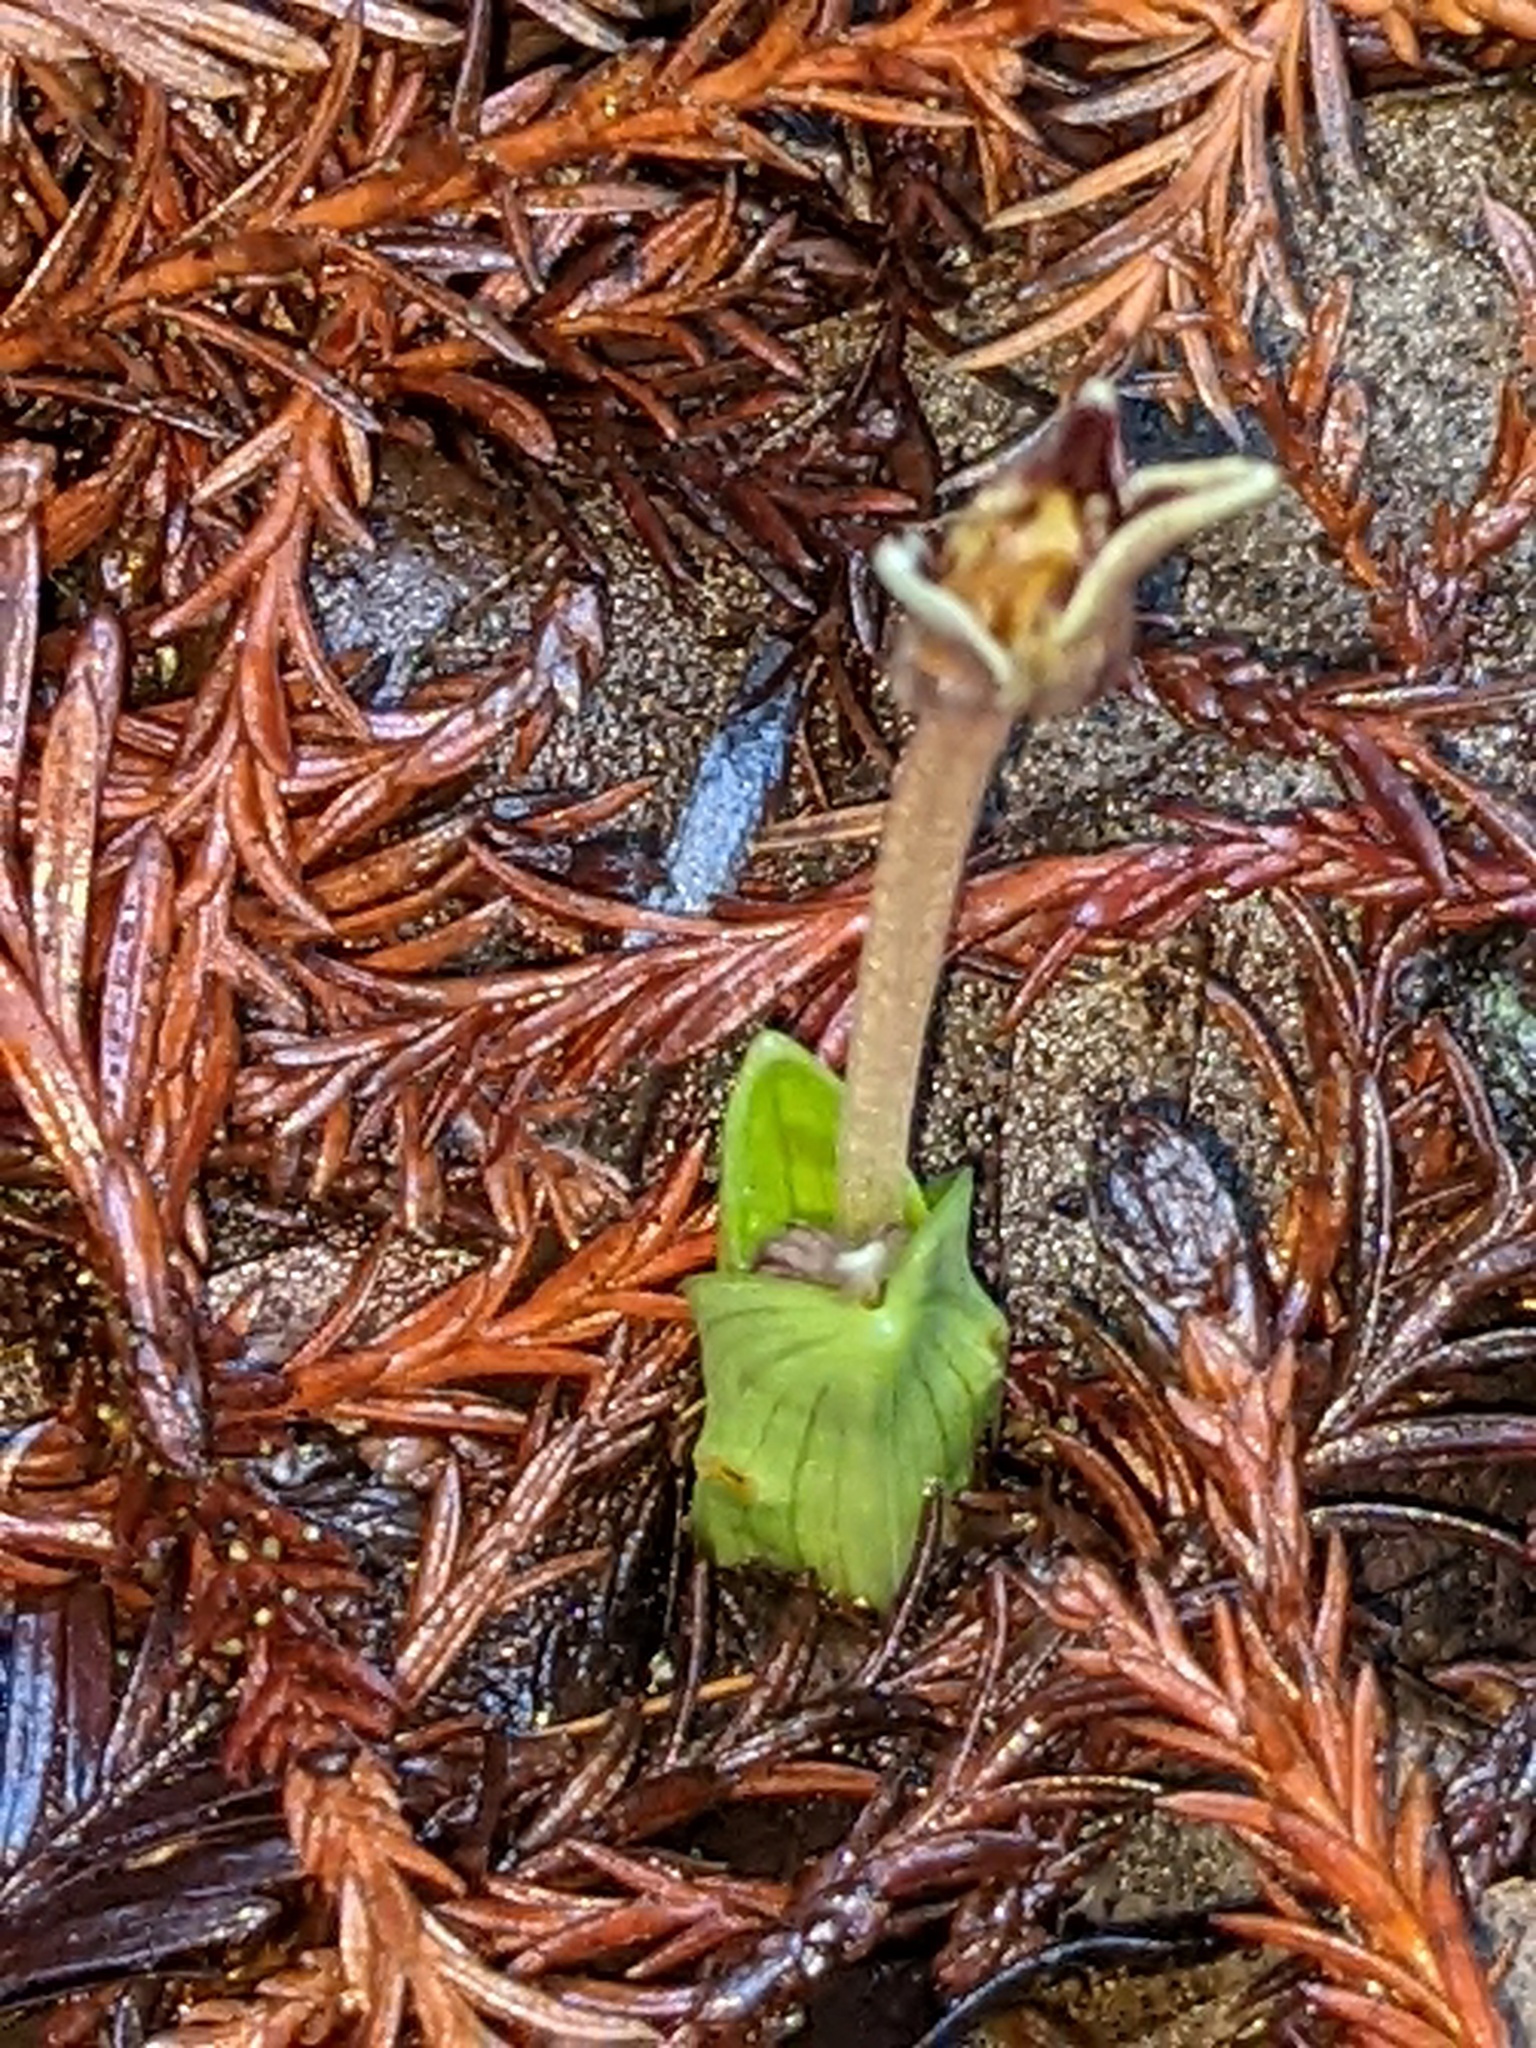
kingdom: Plantae
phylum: Tracheophyta
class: Liliopsida
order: Liliales
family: Liliaceae
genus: Scoliopus
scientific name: Scoliopus bigelovii
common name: Foetid adder's-tongue
